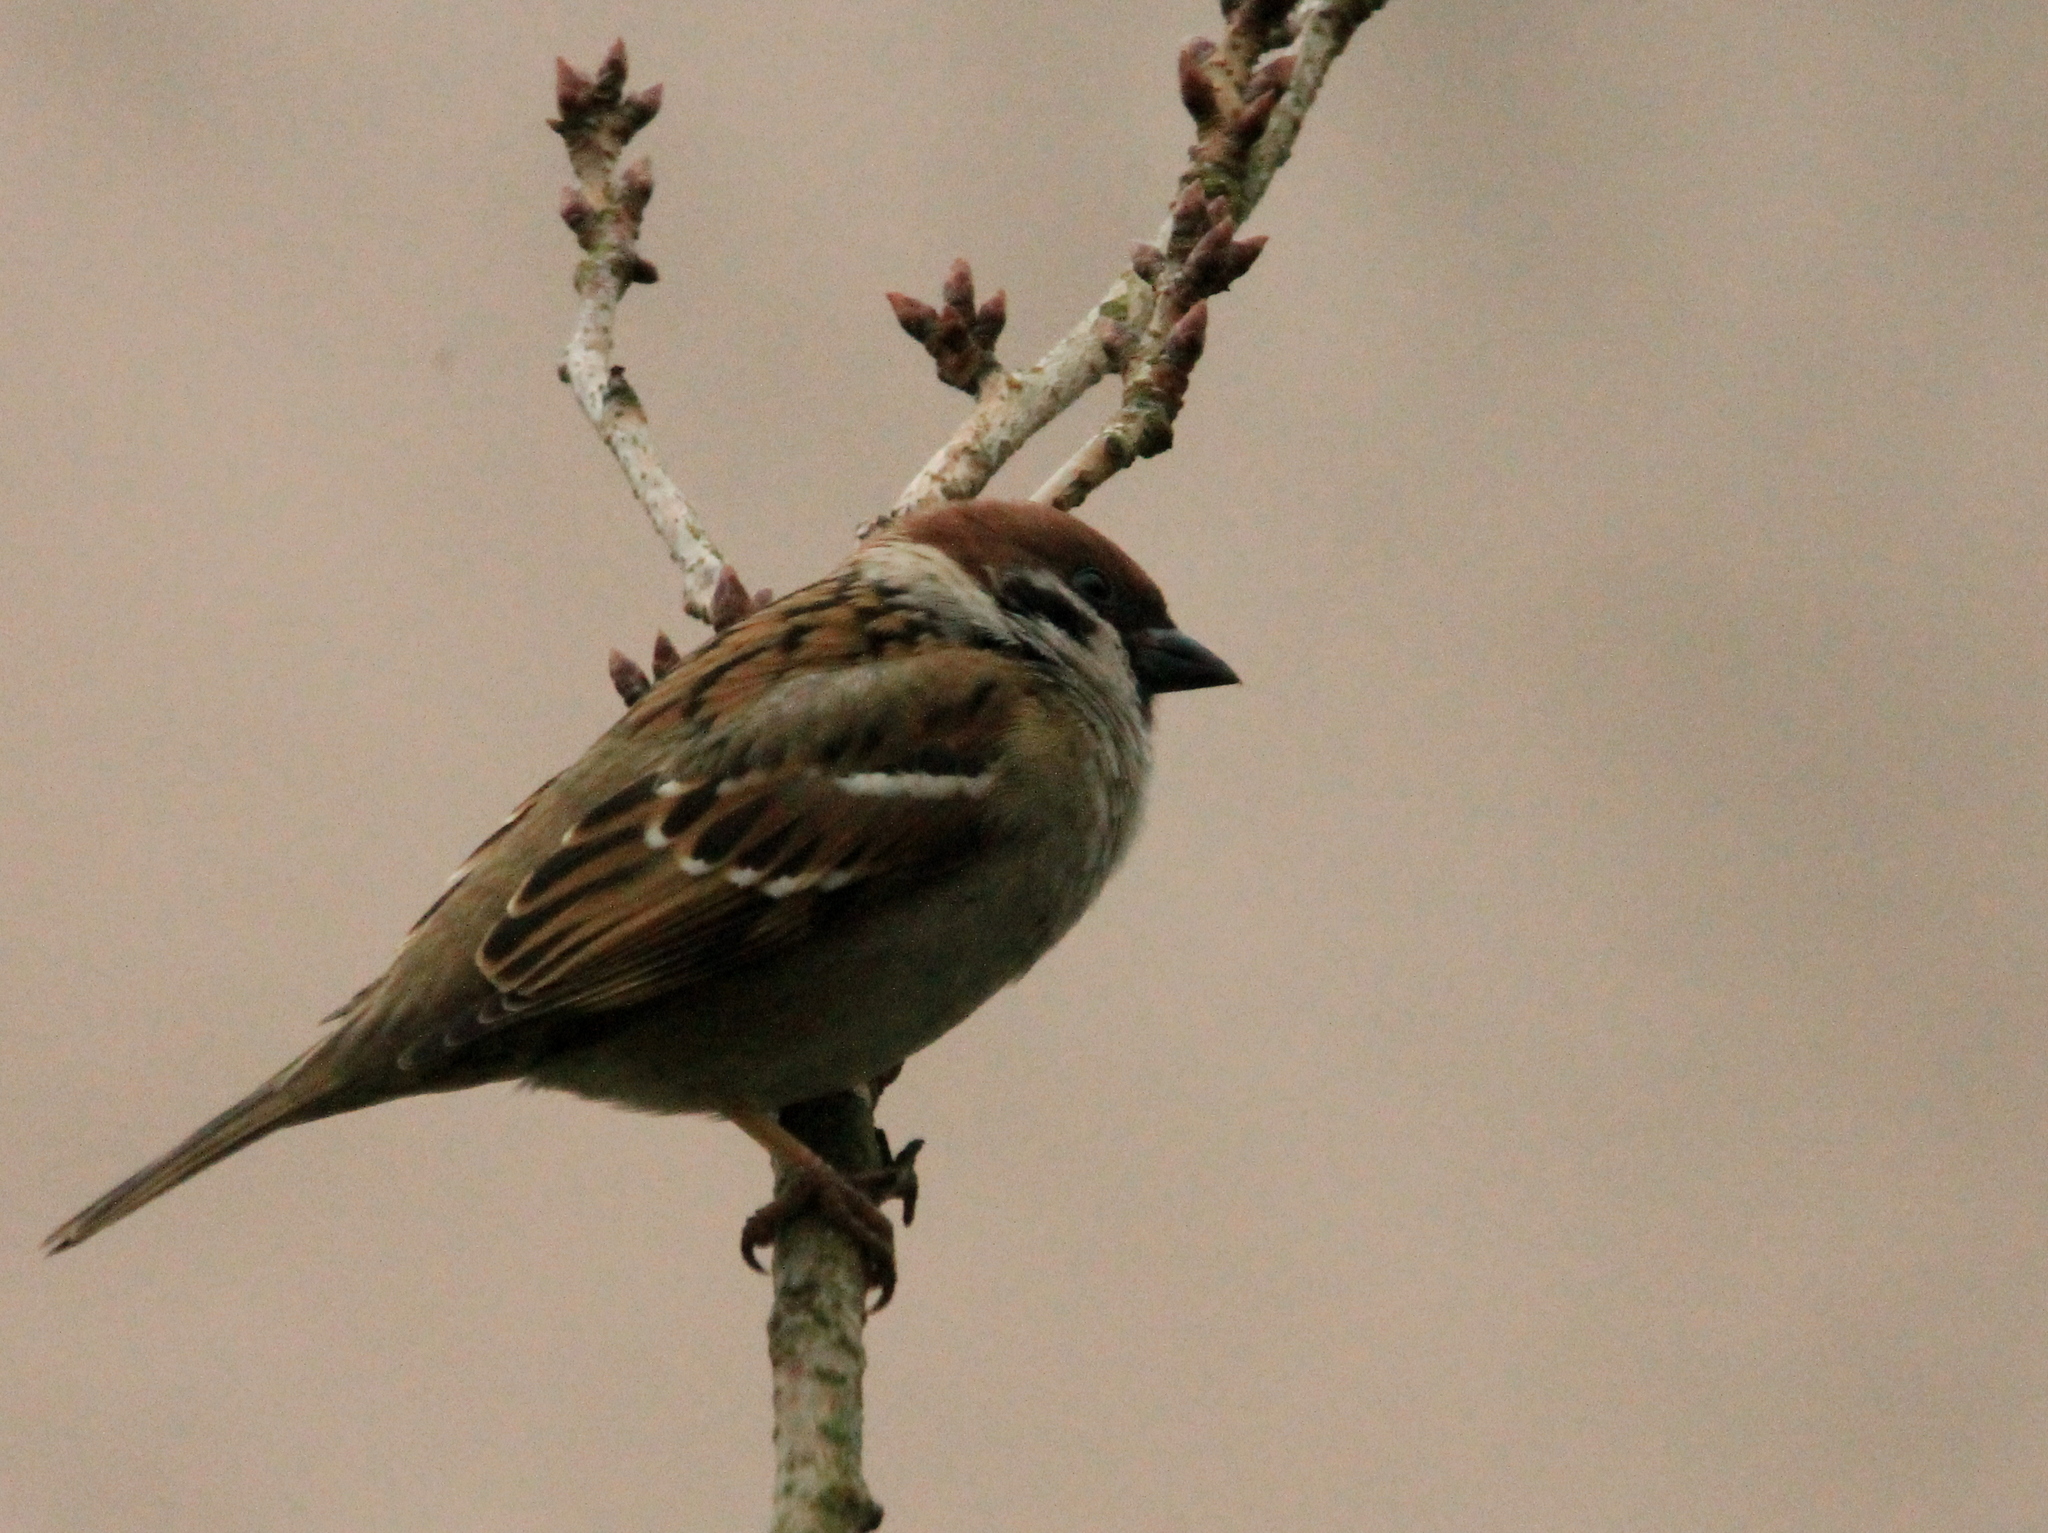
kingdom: Animalia
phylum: Chordata
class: Aves
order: Passeriformes
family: Passeridae
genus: Passer
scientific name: Passer montanus
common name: Eurasian tree sparrow
